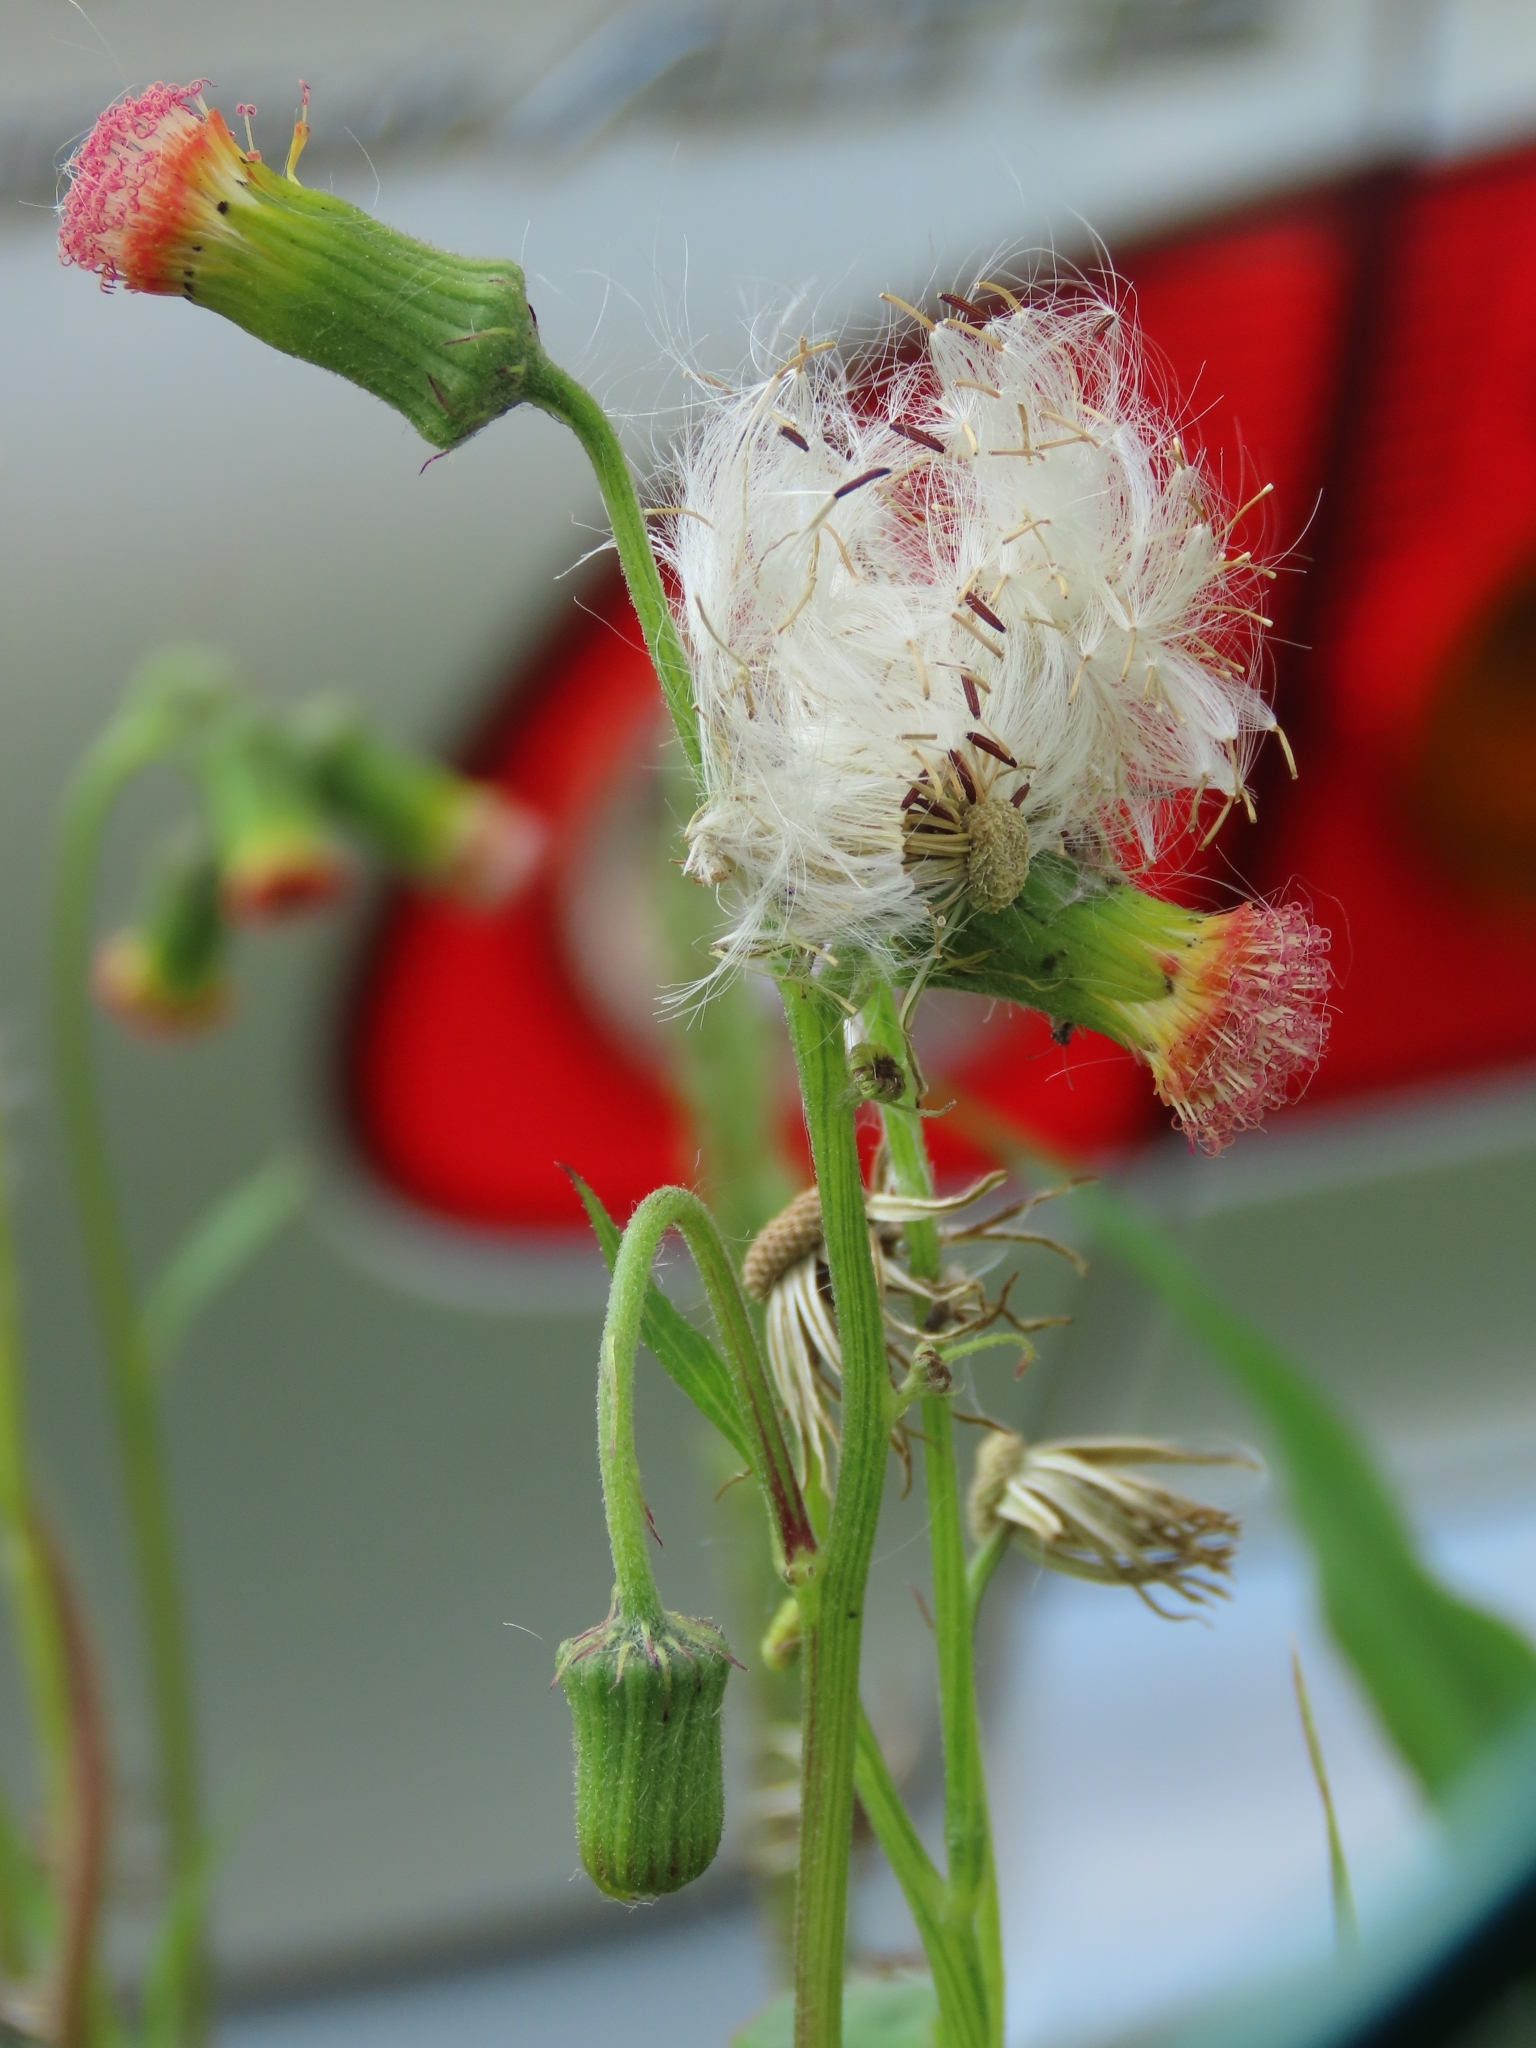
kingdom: Plantae
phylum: Tracheophyta
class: Magnoliopsida
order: Asterales
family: Asteraceae
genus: Crassocephalum
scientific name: Crassocephalum crepidioides
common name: Redflower ragleaf
